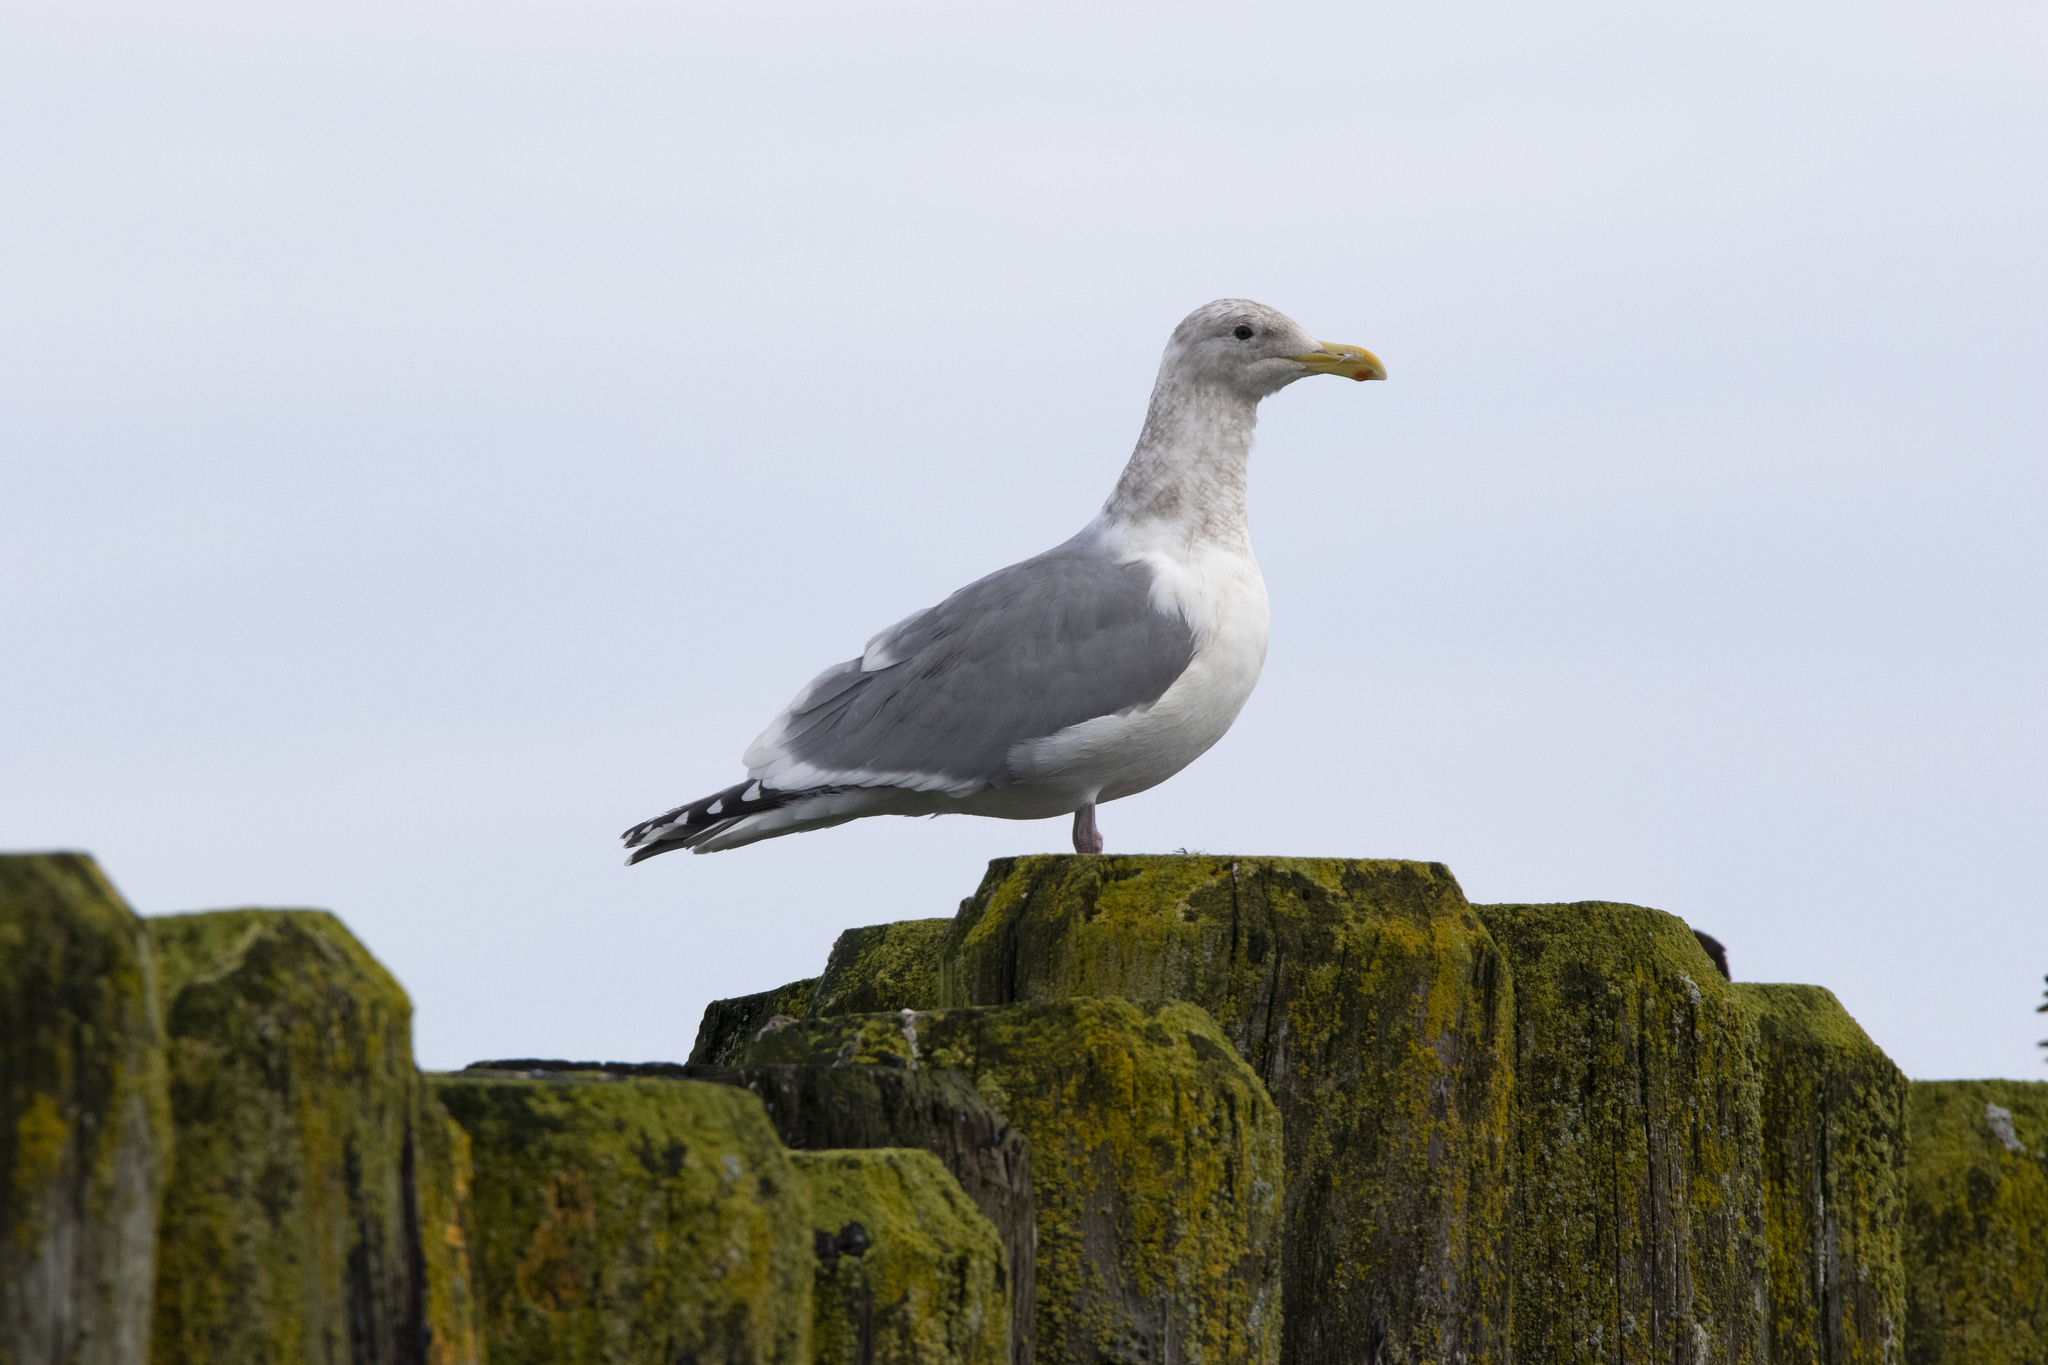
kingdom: Animalia
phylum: Chordata
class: Aves
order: Charadriiformes
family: Laridae
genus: Larus
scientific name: Larus
